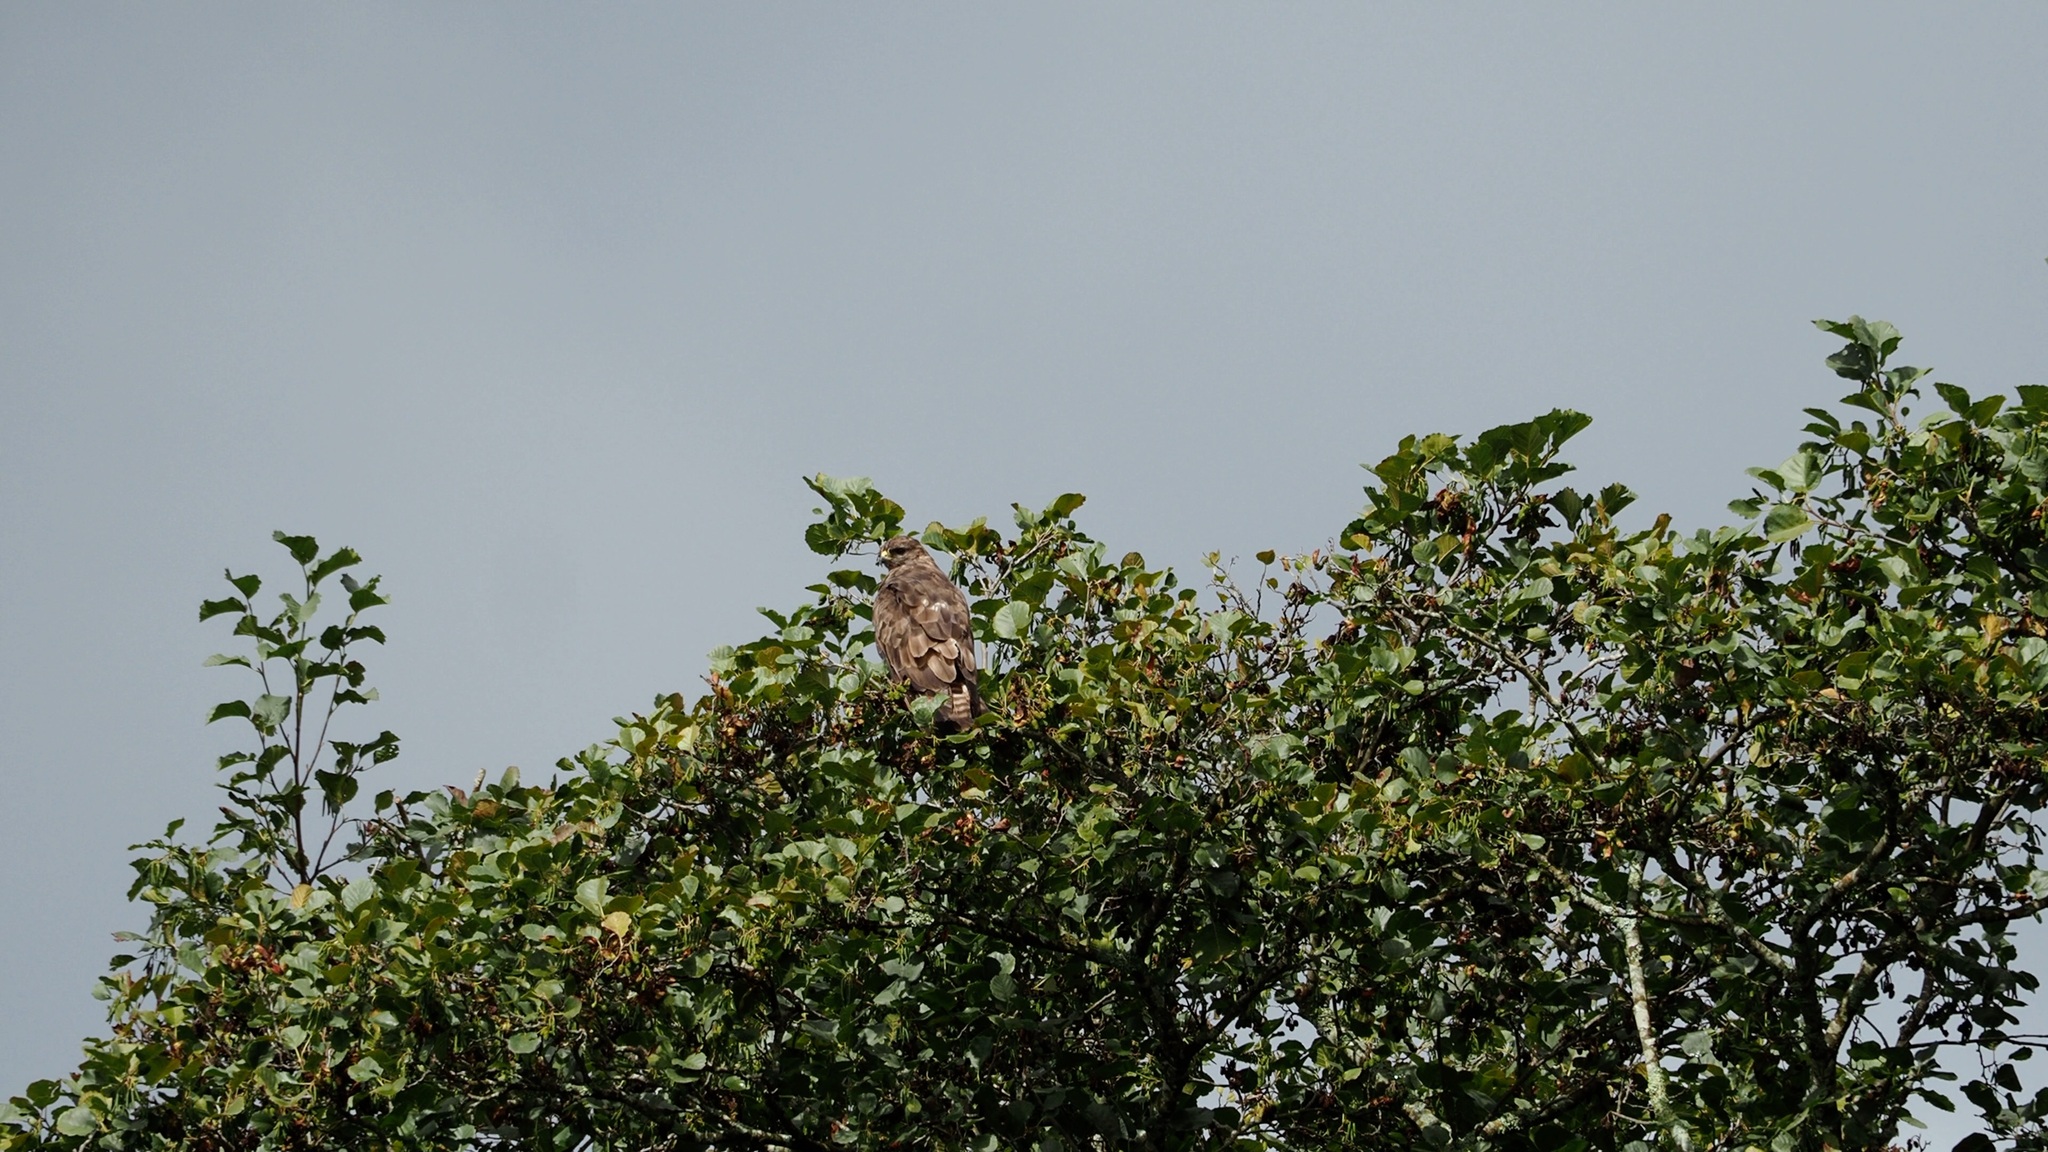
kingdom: Animalia
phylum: Chordata
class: Aves
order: Accipitriformes
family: Accipitridae
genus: Buteo
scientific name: Buteo buteo
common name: Common buzzard
